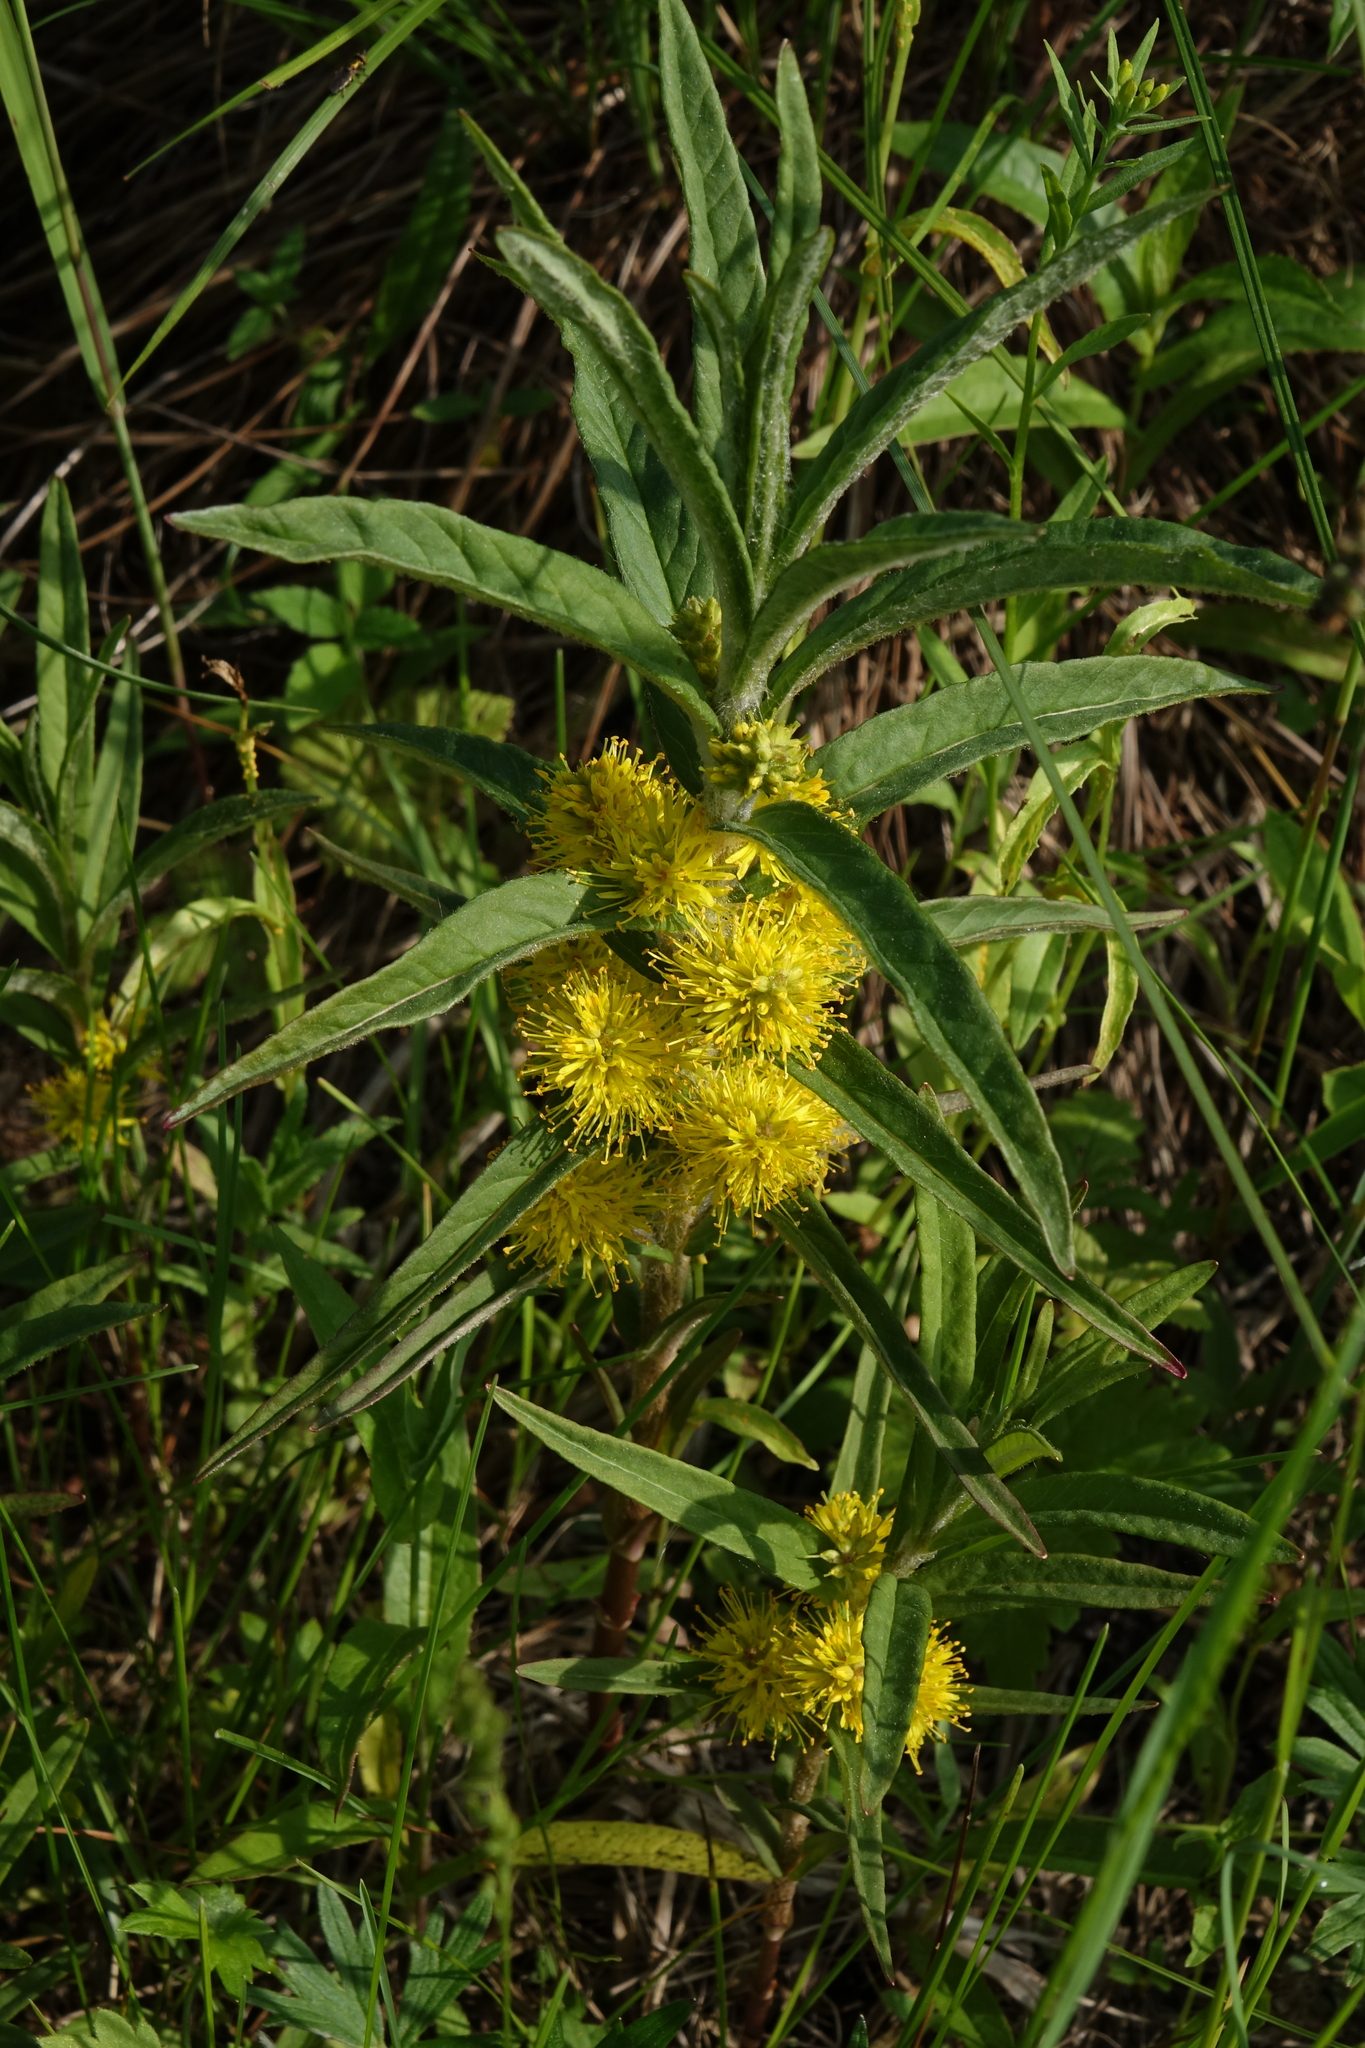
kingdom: Plantae
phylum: Tracheophyta
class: Magnoliopsida
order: Ericales
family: Primulaceae
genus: Lysimachia
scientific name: Lysimachia thyrsiflora
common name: Tufted loosestrife
